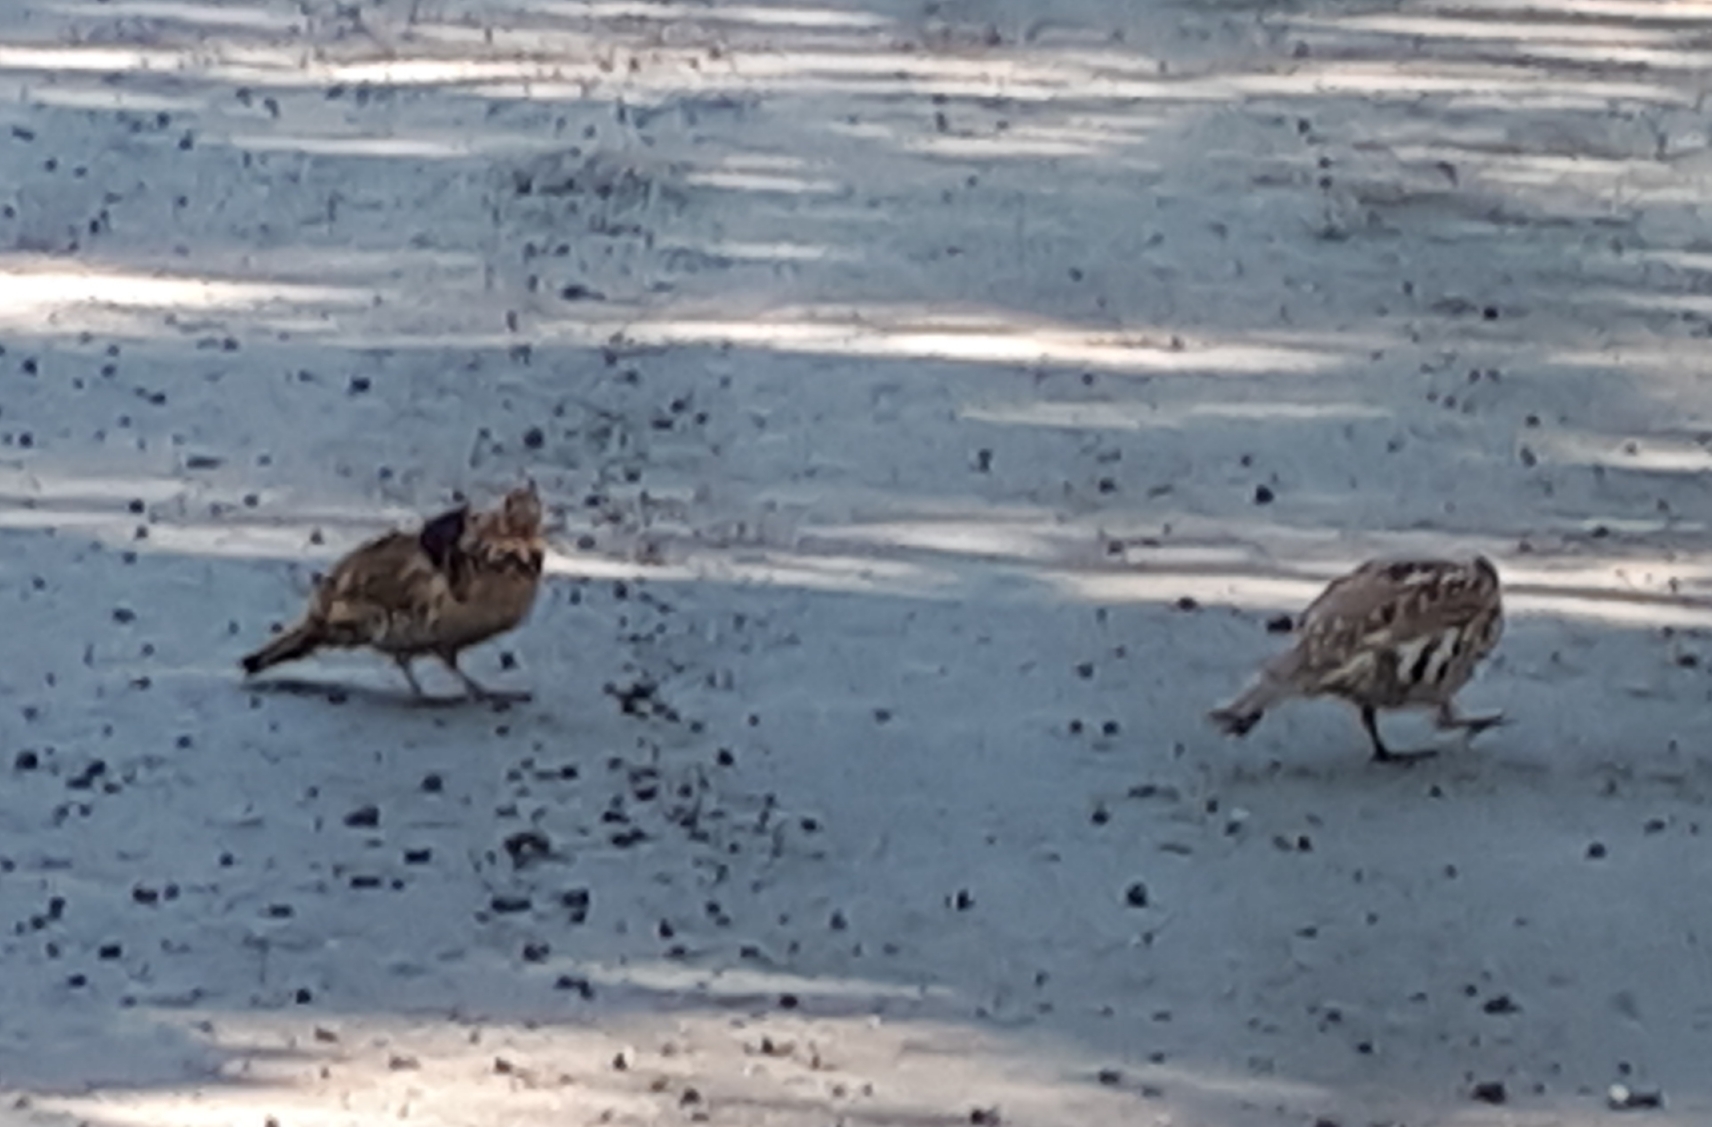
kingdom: Animalia
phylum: Chordata
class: Aves
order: Galliformes
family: Phasianidae
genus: Bonasa
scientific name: Bonasa umbellus
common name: Ruffed grouse
